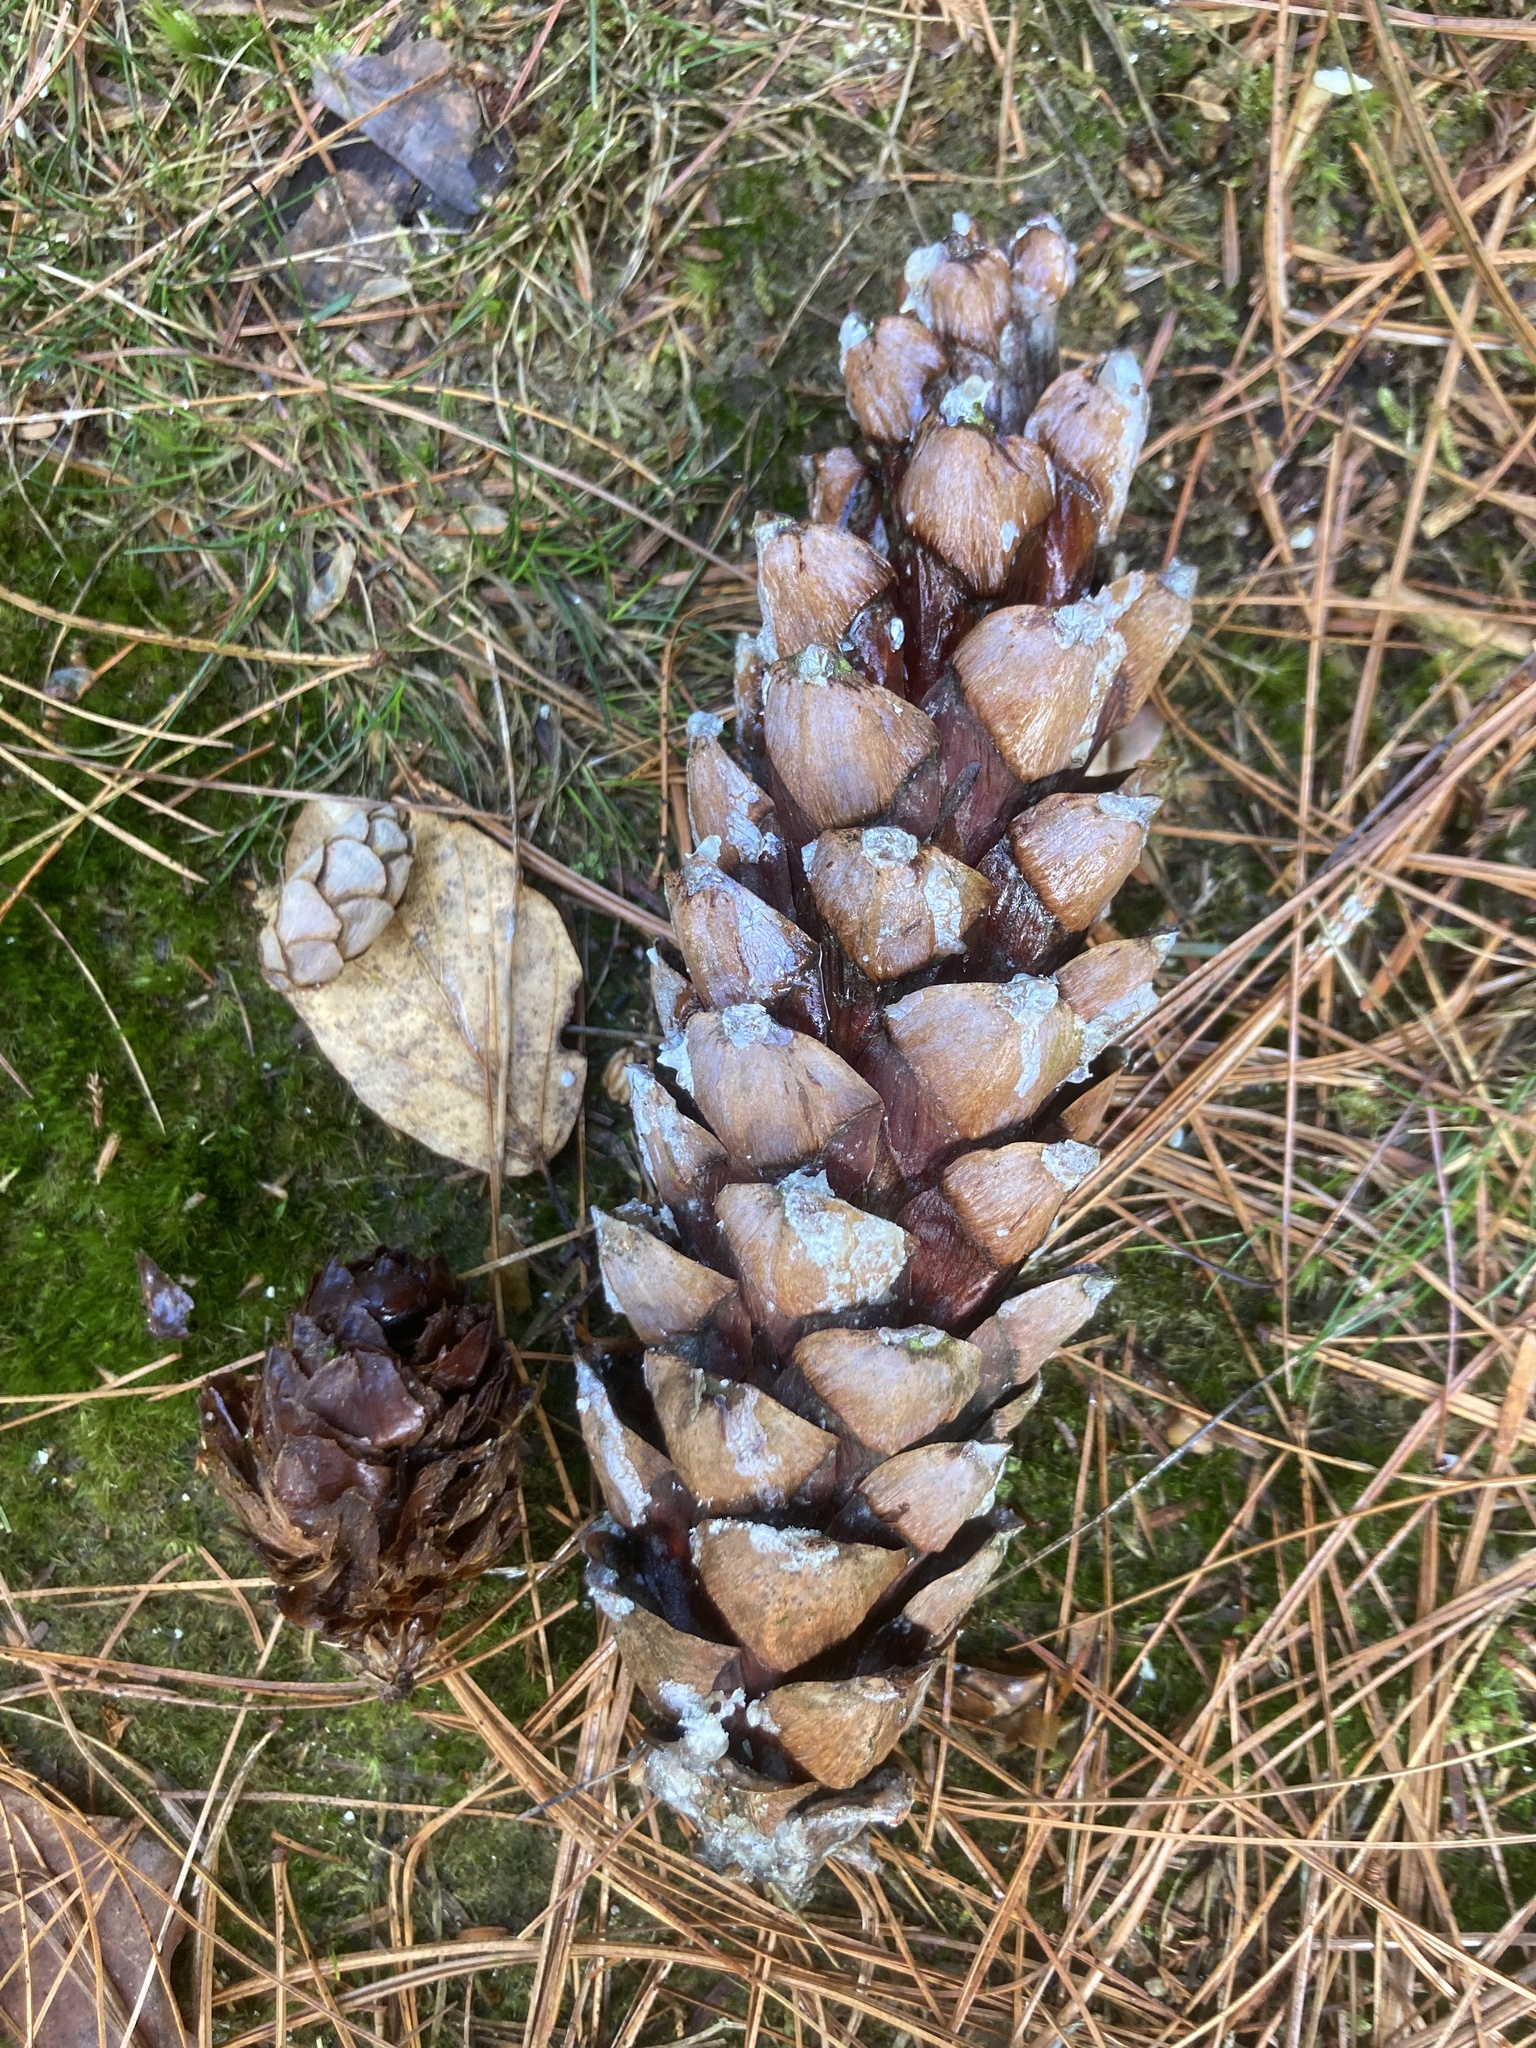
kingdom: Plantae
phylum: Tracheophyta
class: Pinopsida
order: Pinales
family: Pinaceae
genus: Pinus
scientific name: Pinus strobus
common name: Weymouth pine
